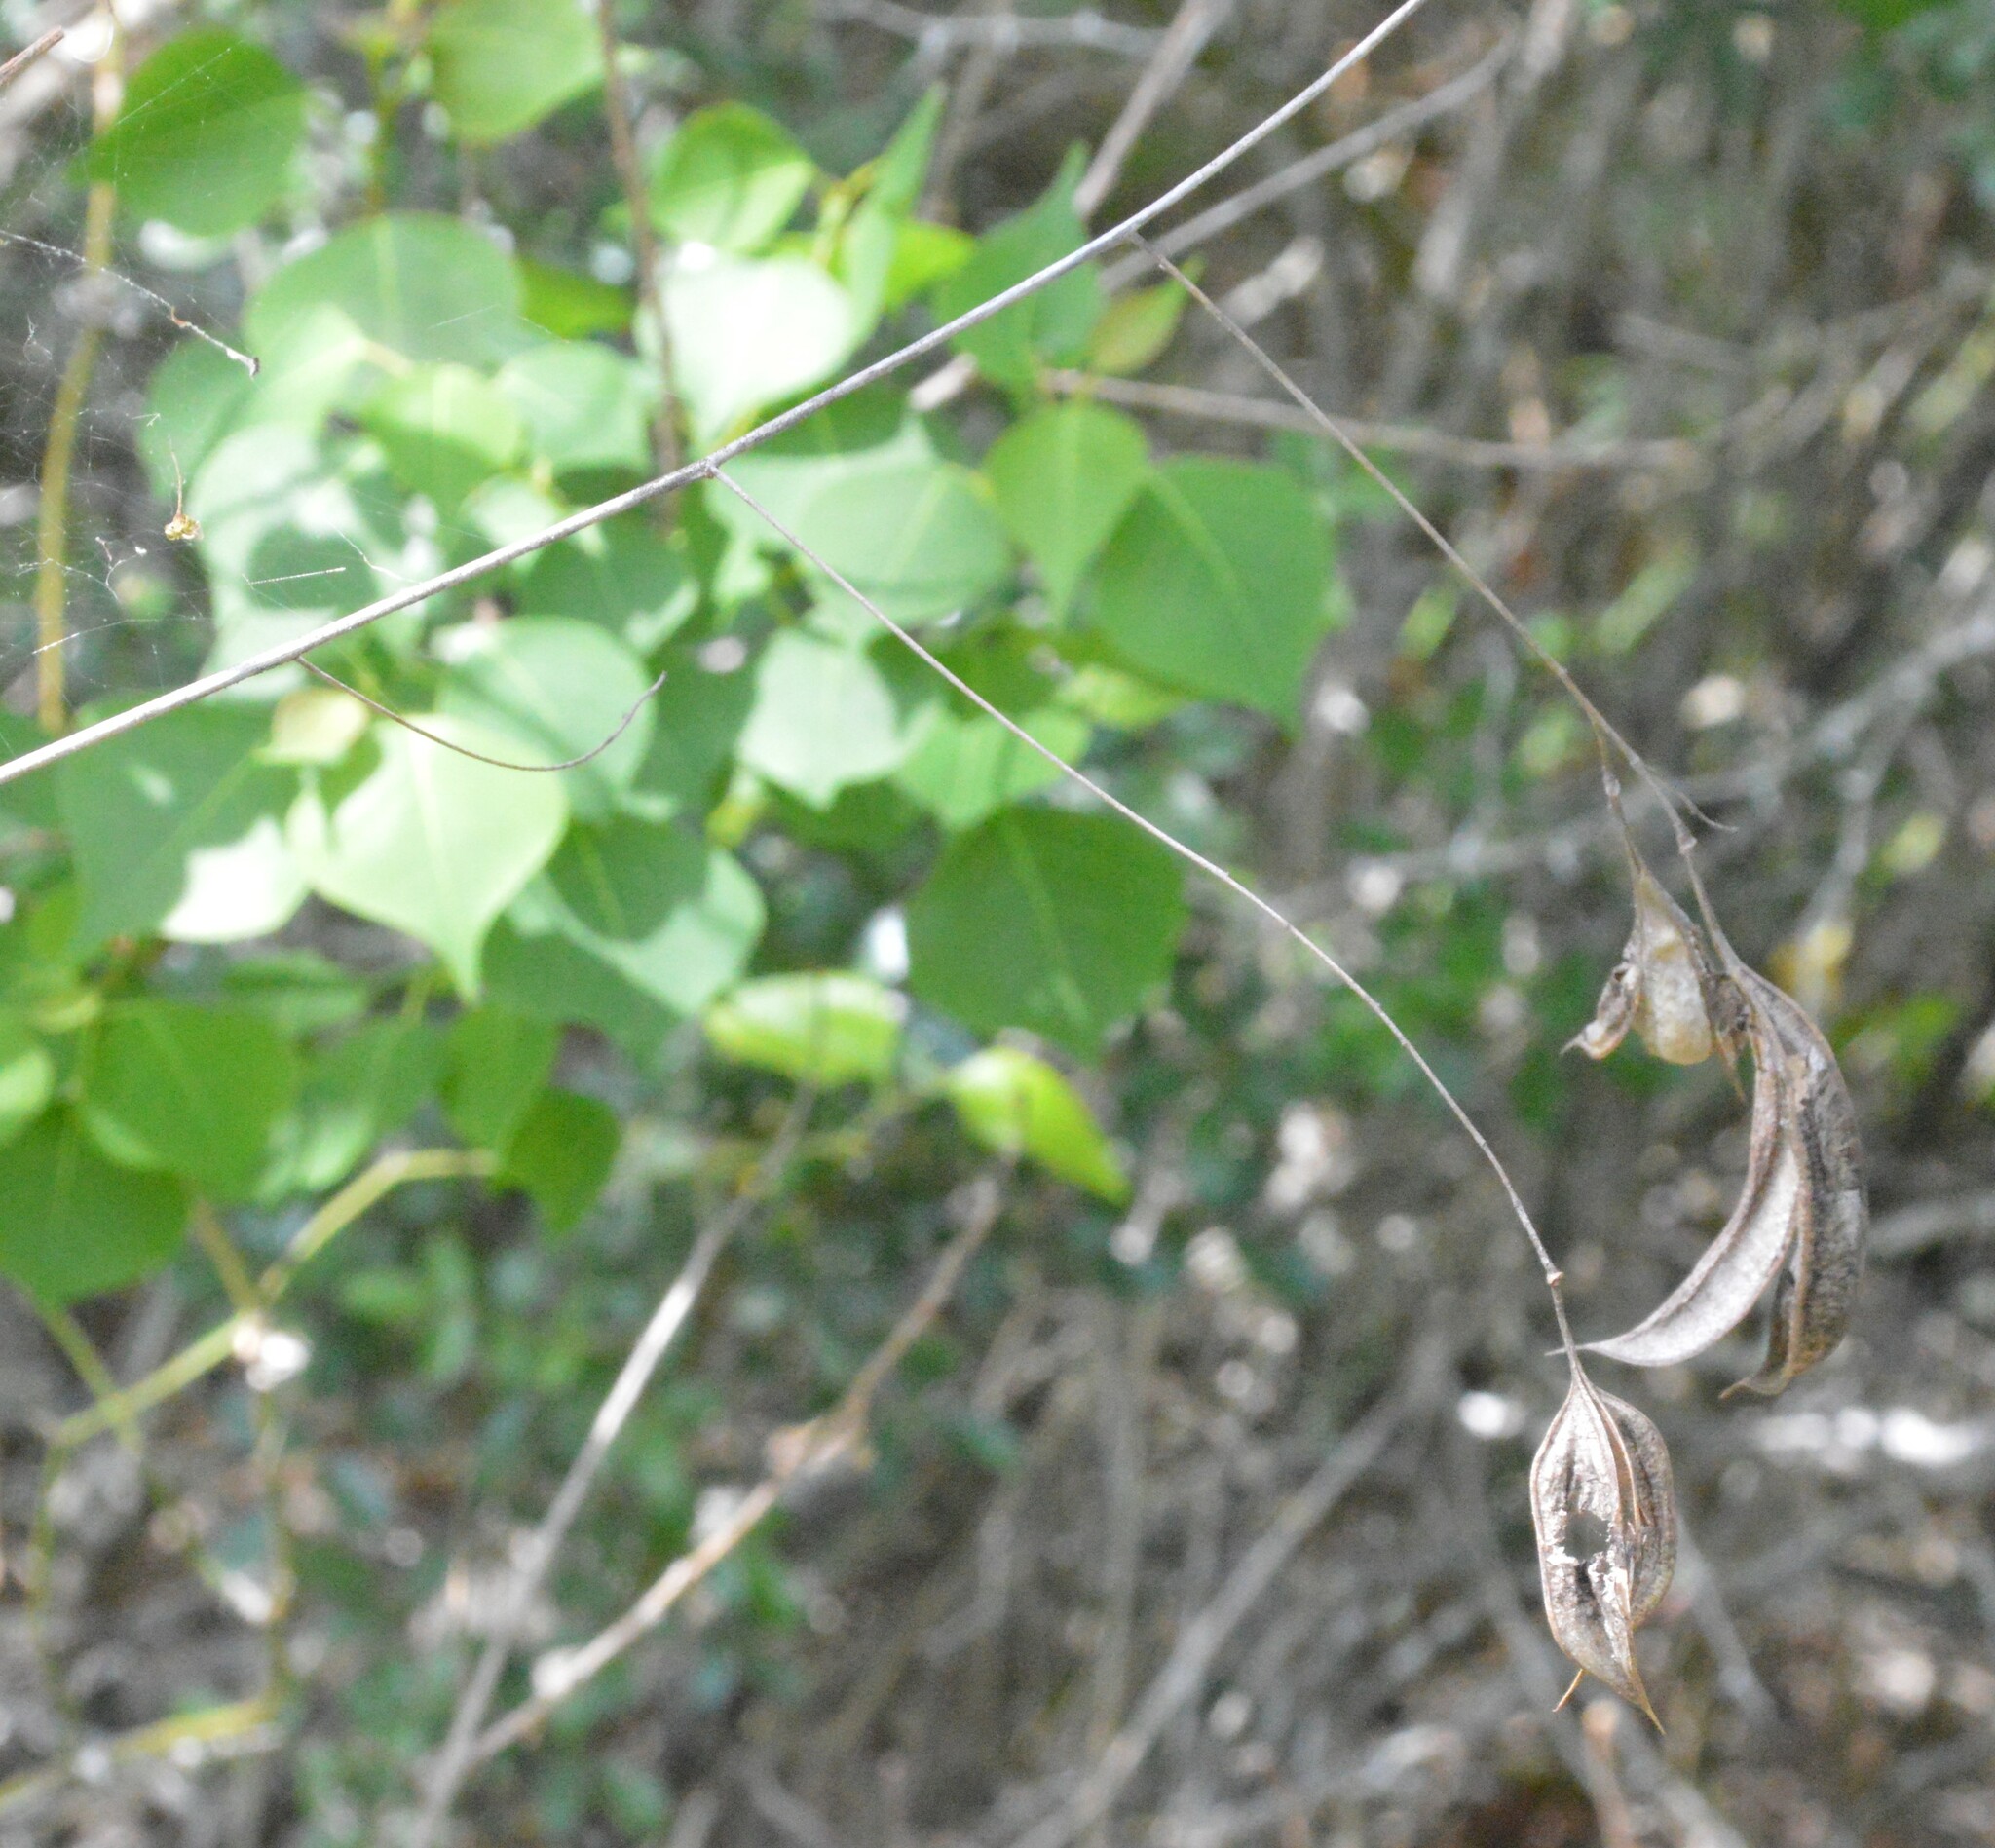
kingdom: Plantae
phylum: Tracheophyta
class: Magnoliopsida
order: Fabales
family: Fabaceae
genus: Sesbania
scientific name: Sesbania vesicaria
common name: Bagpod
